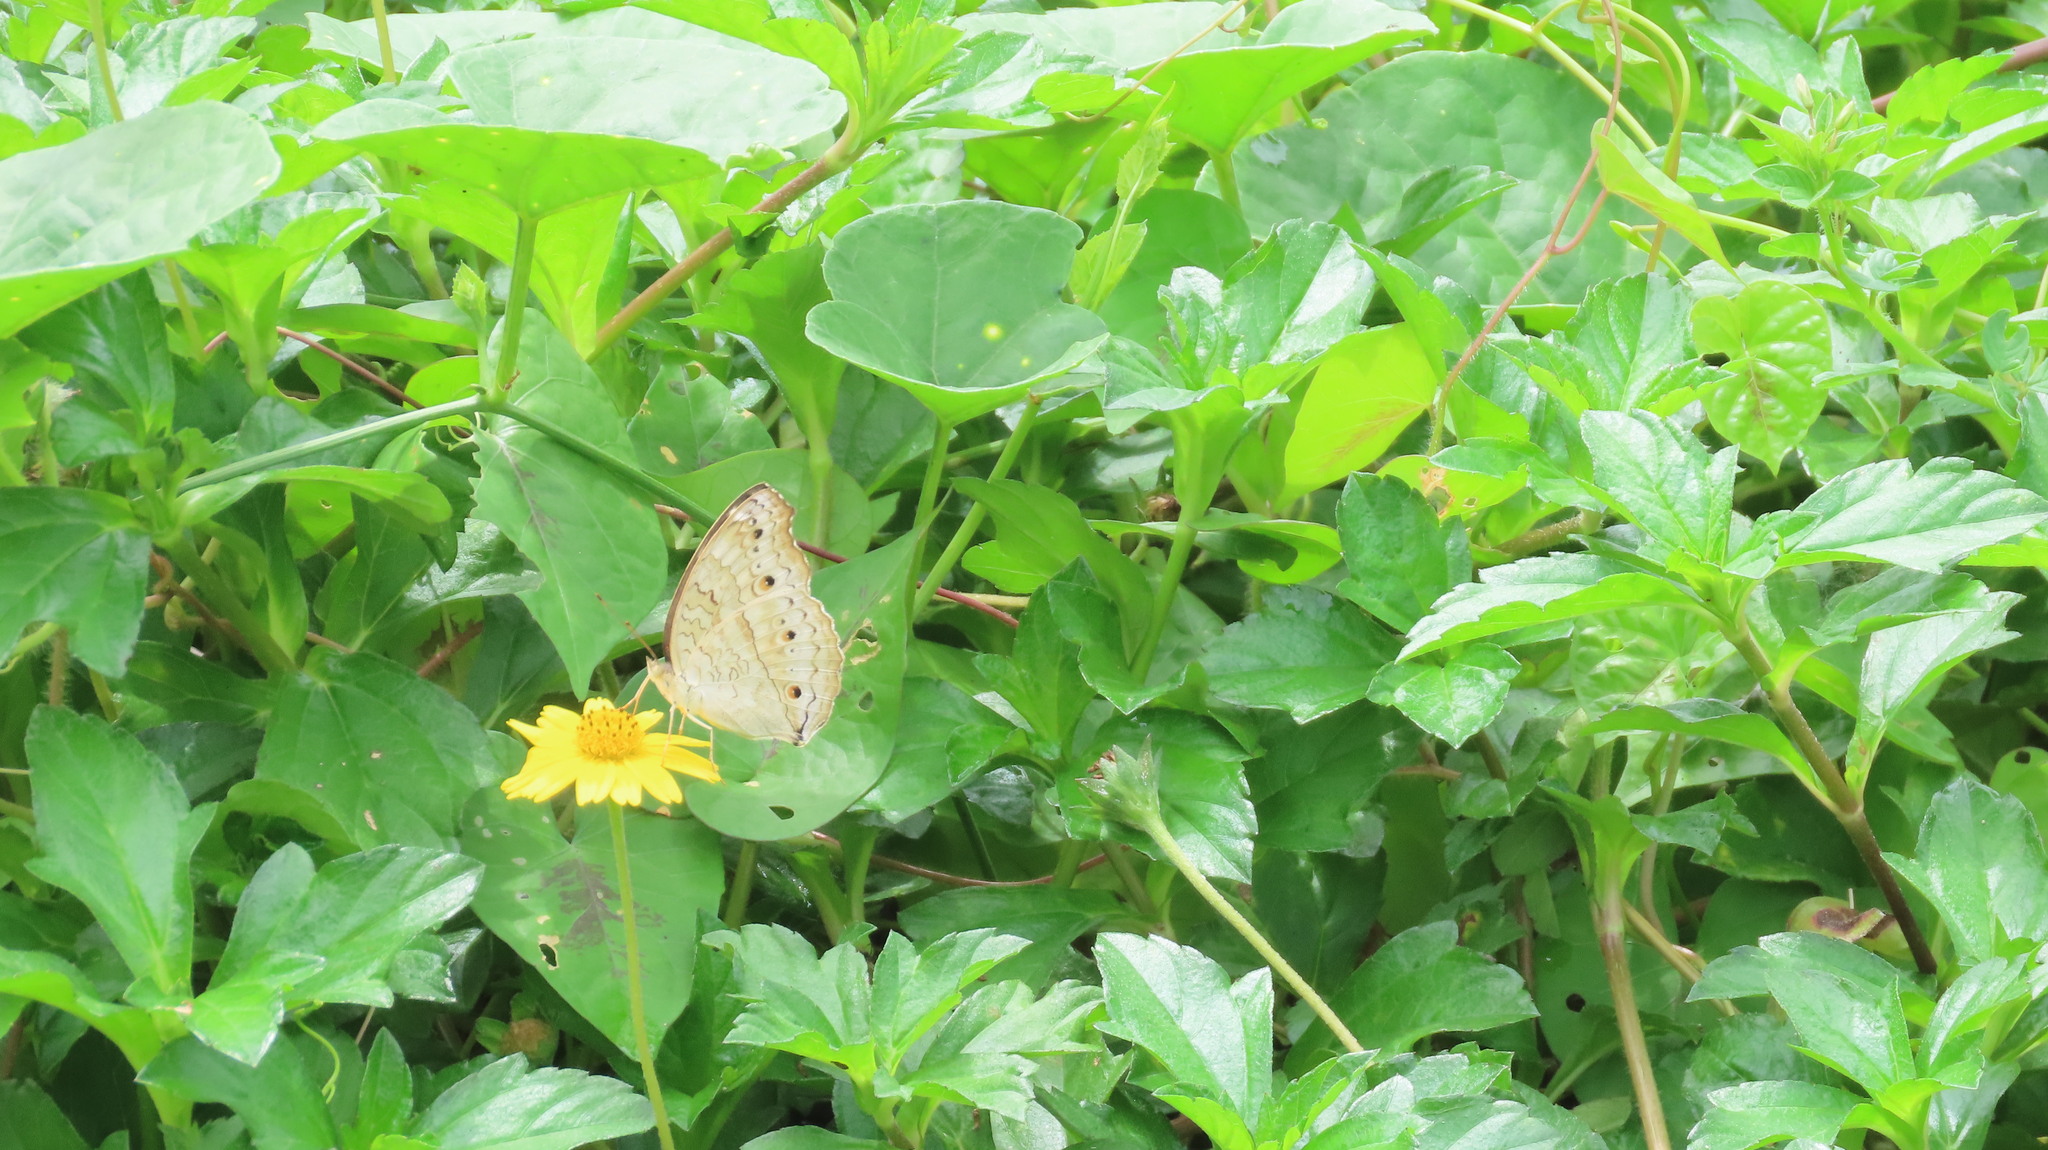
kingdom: Animalia
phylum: Arthropoda
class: Insecta
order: Lepidoptera
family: Nymphalidae
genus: Junonia
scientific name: Junonia atlites
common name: Grey pansy
